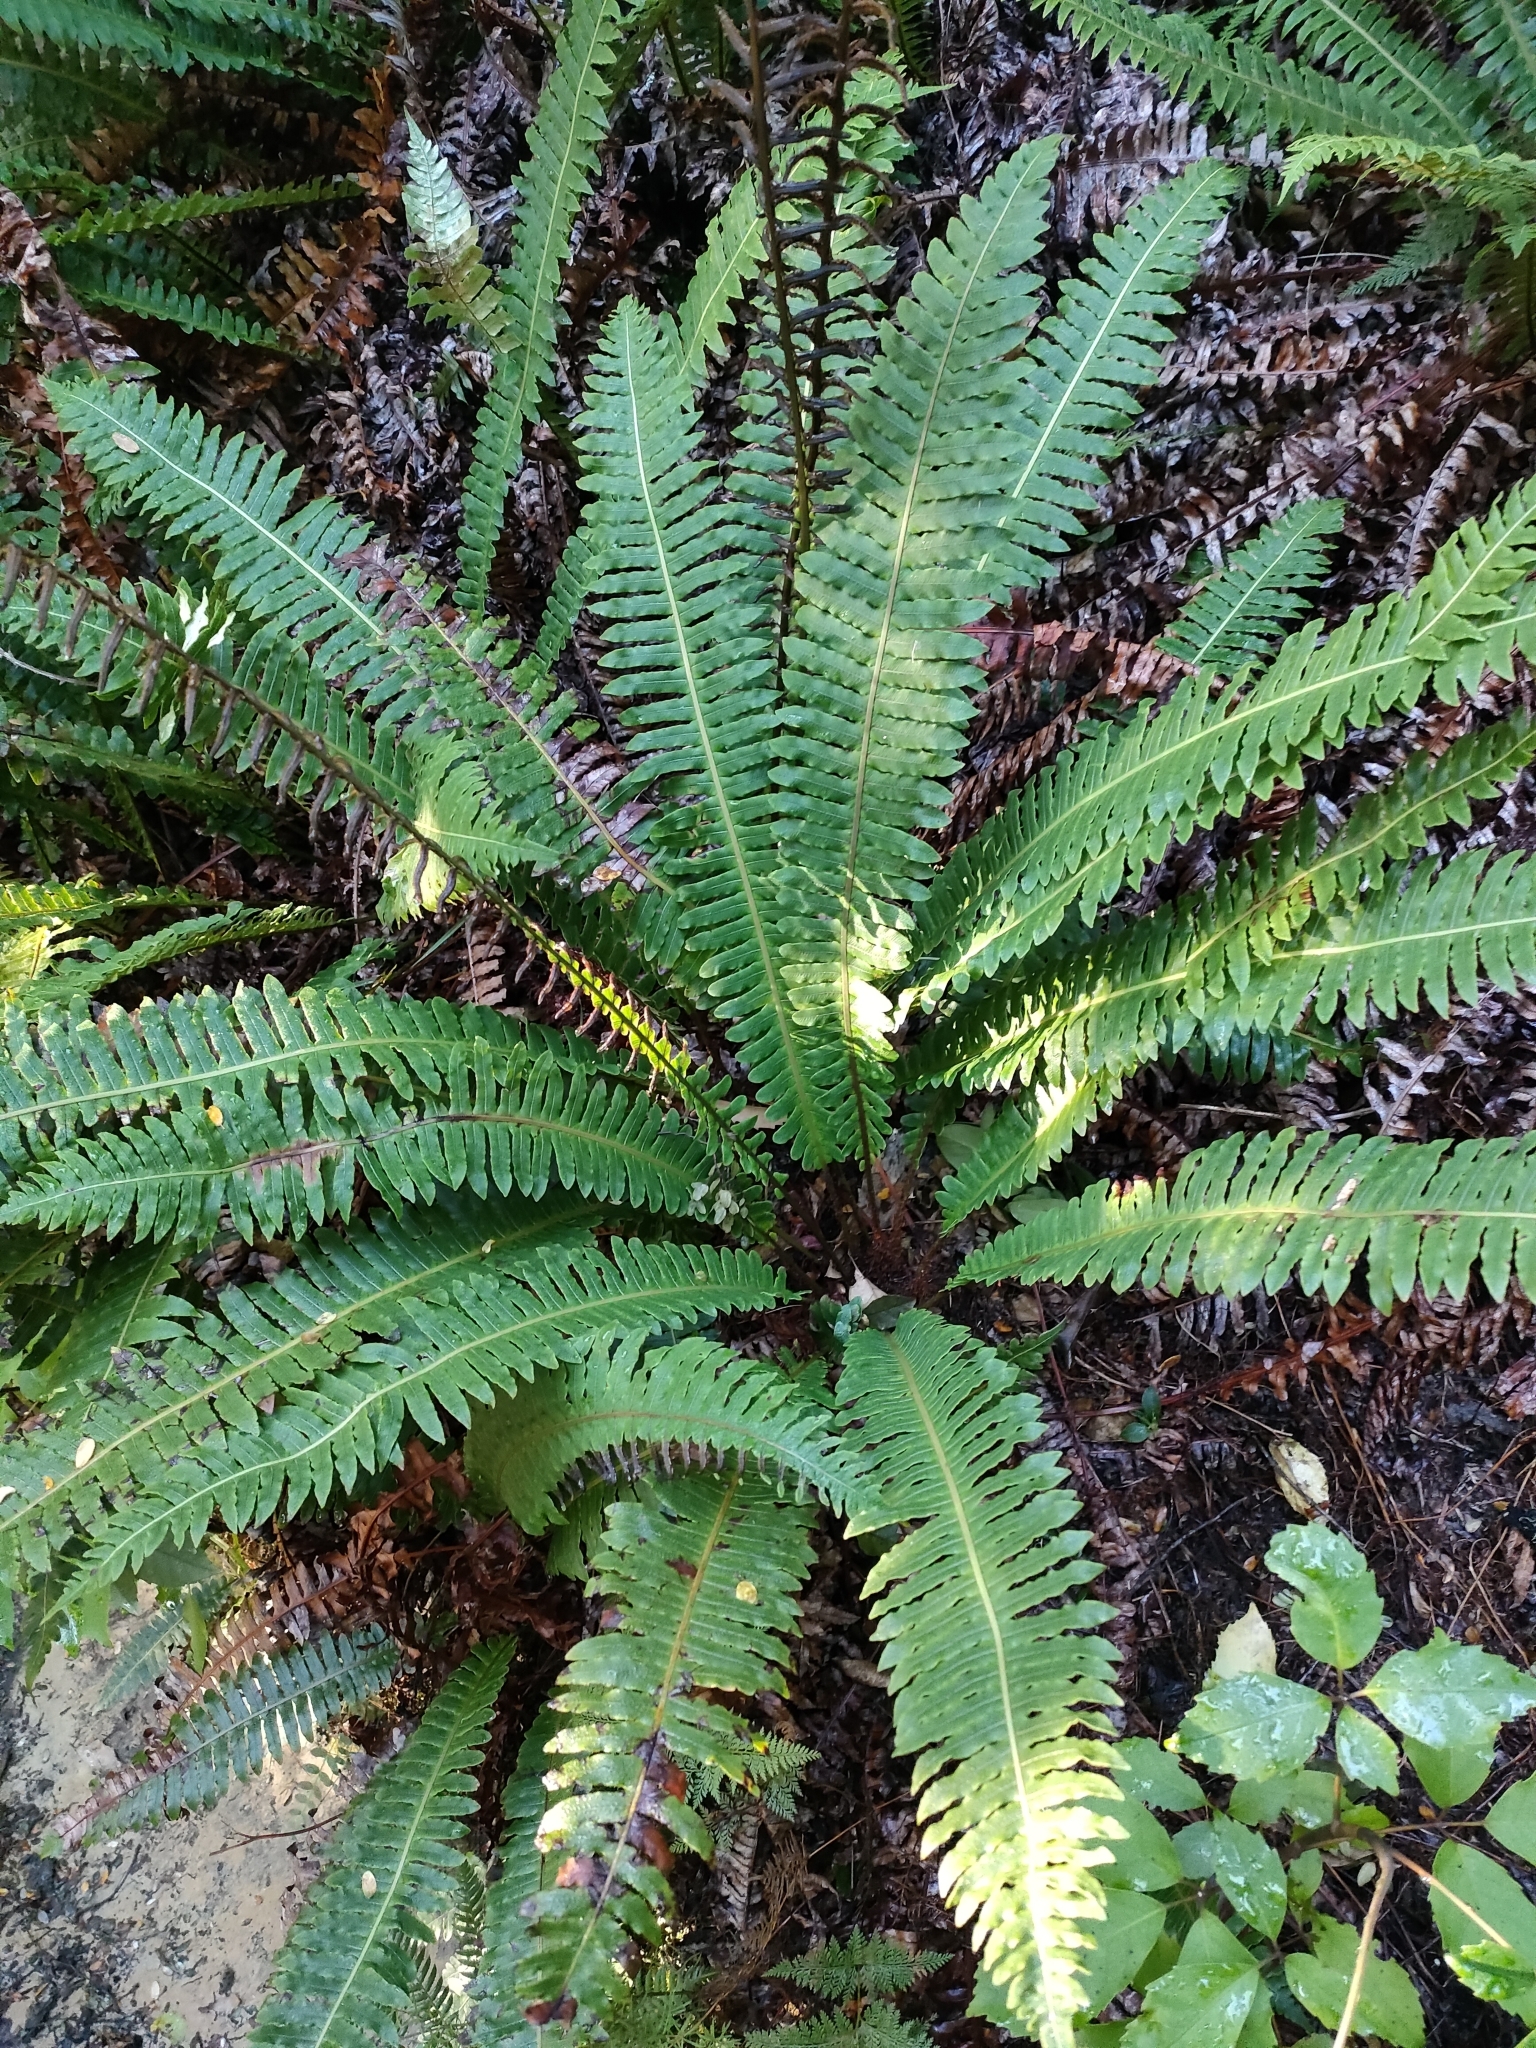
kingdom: Plantae
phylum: Tracheophyta
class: Polypodiopsida
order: Polypodiales
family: Blechnaceae
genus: Lomaria
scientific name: Lomaria discolor
